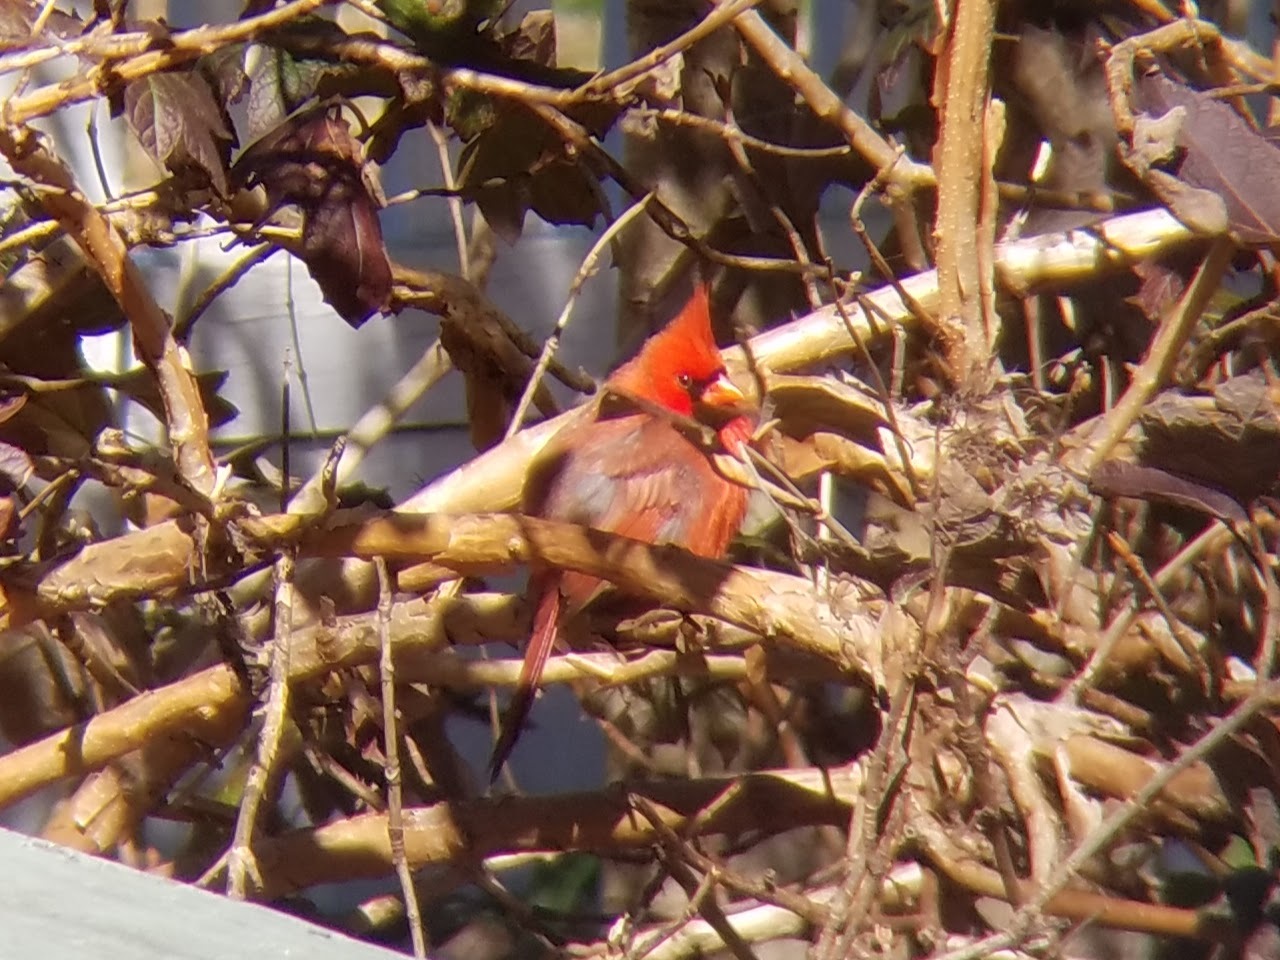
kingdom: Animalia
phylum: Chordata
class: Aves
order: Passeriformes
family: Cardinalidae
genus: Cardinalis
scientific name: Cardinalis cardinalis
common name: Northern cardinal
